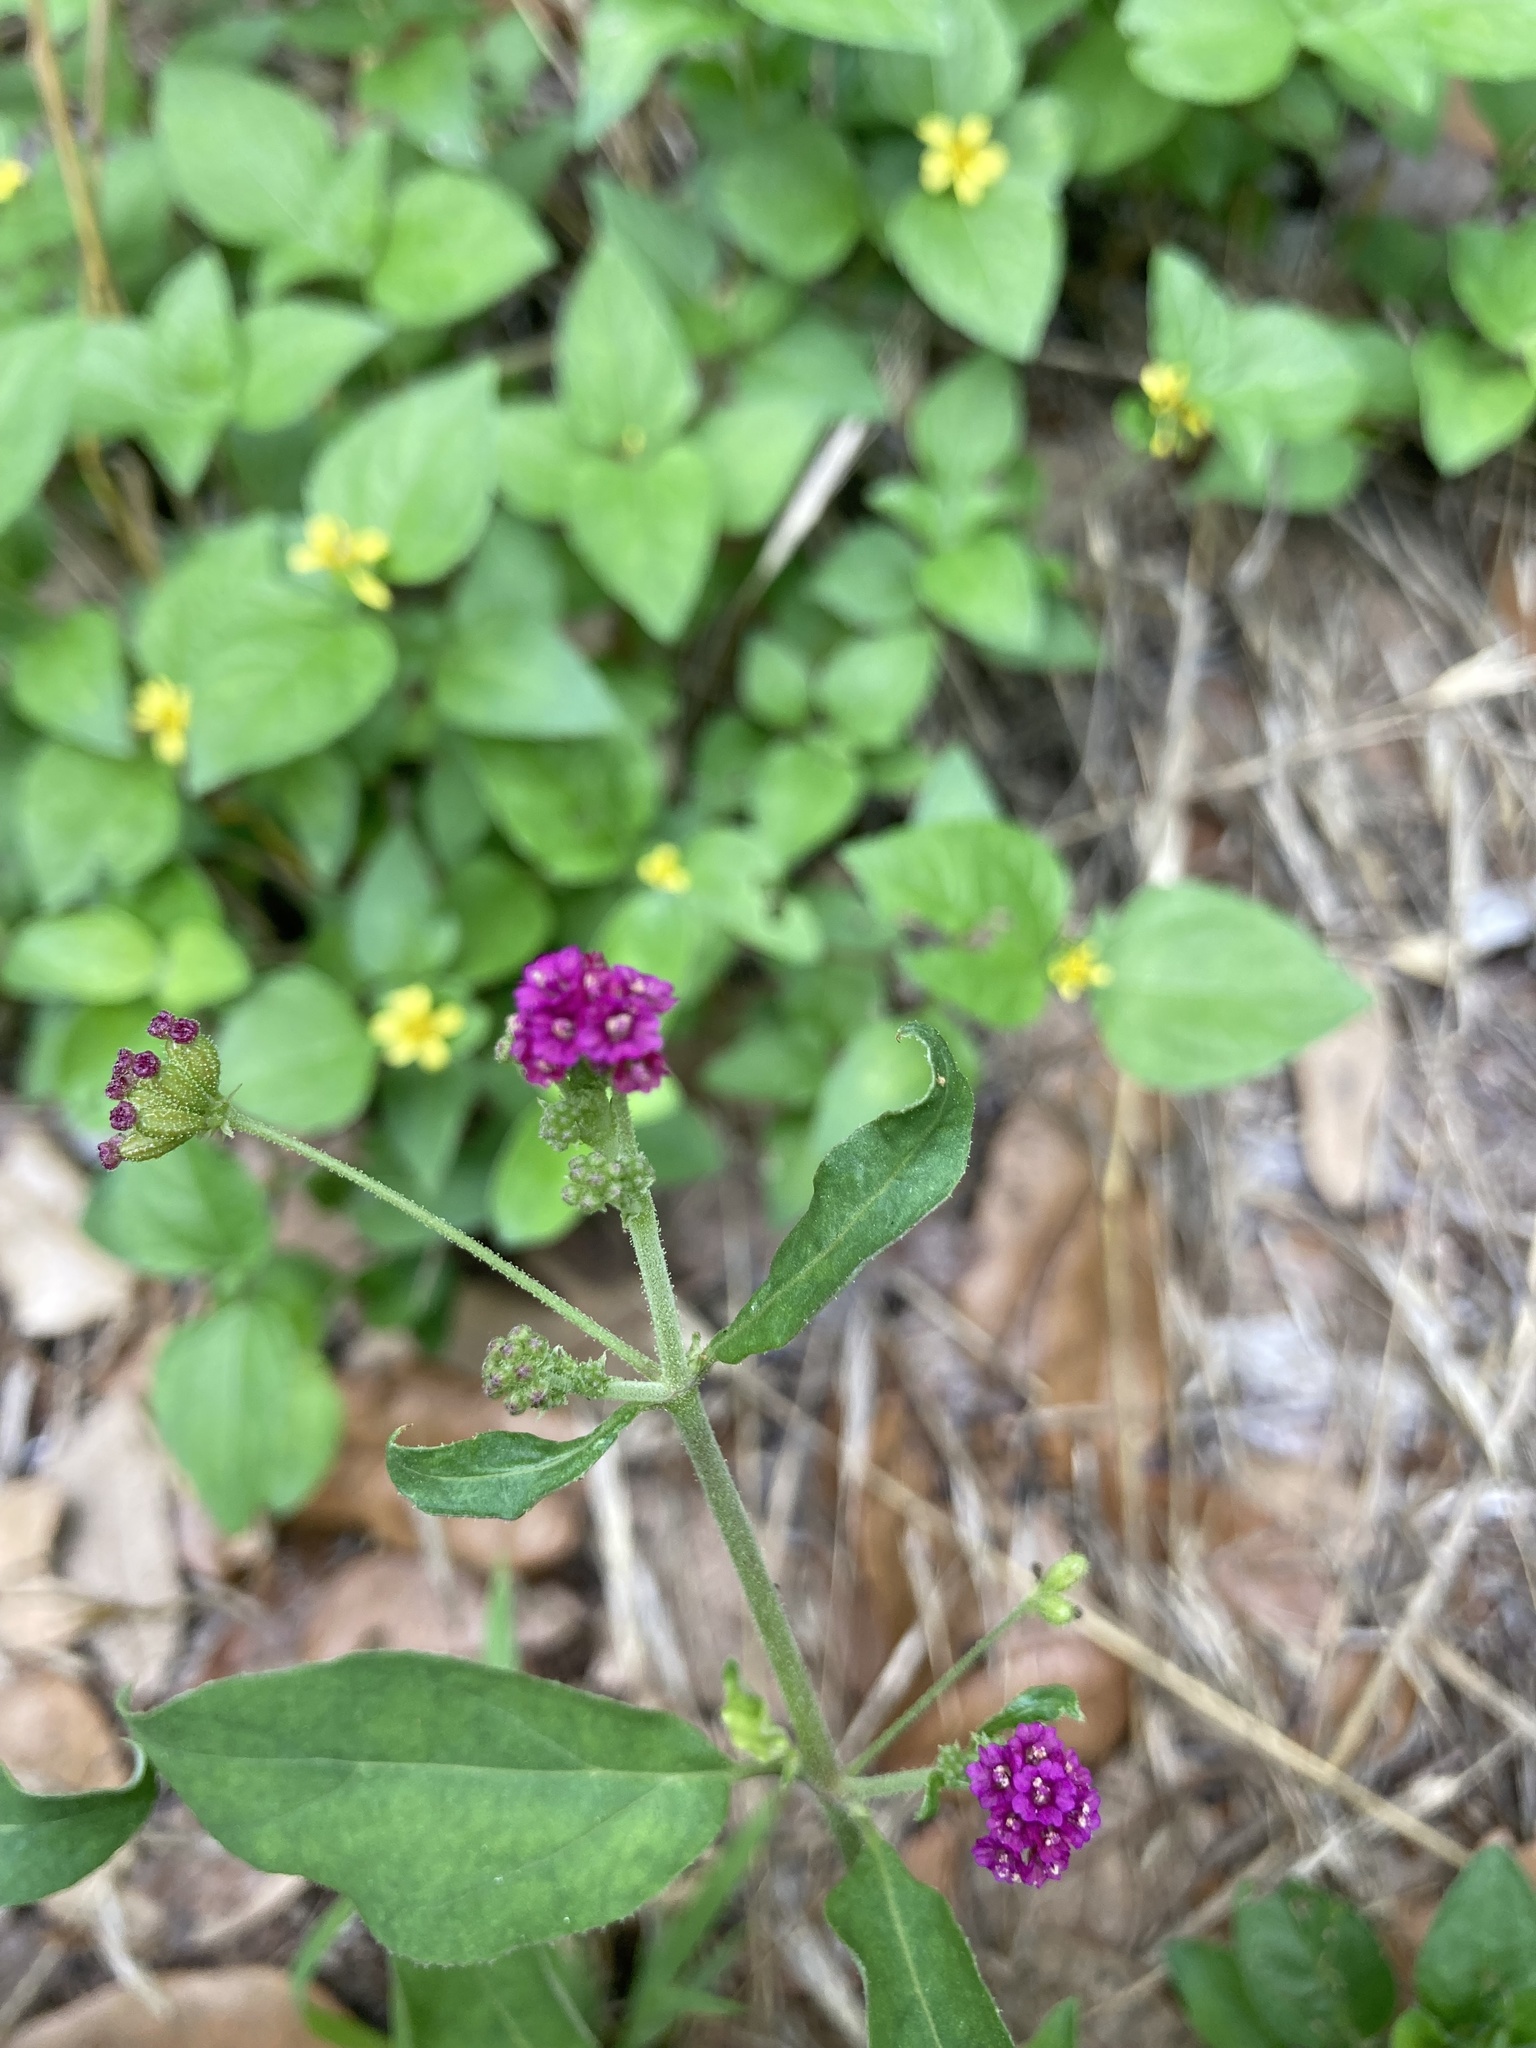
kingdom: Plantae
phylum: Tracheophyta
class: Magnoliopsida
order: Caryophyllales
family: Nyctaginaceae
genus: Boerhavia
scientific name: Boerhavia coccinea
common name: Scarlet spiderling
